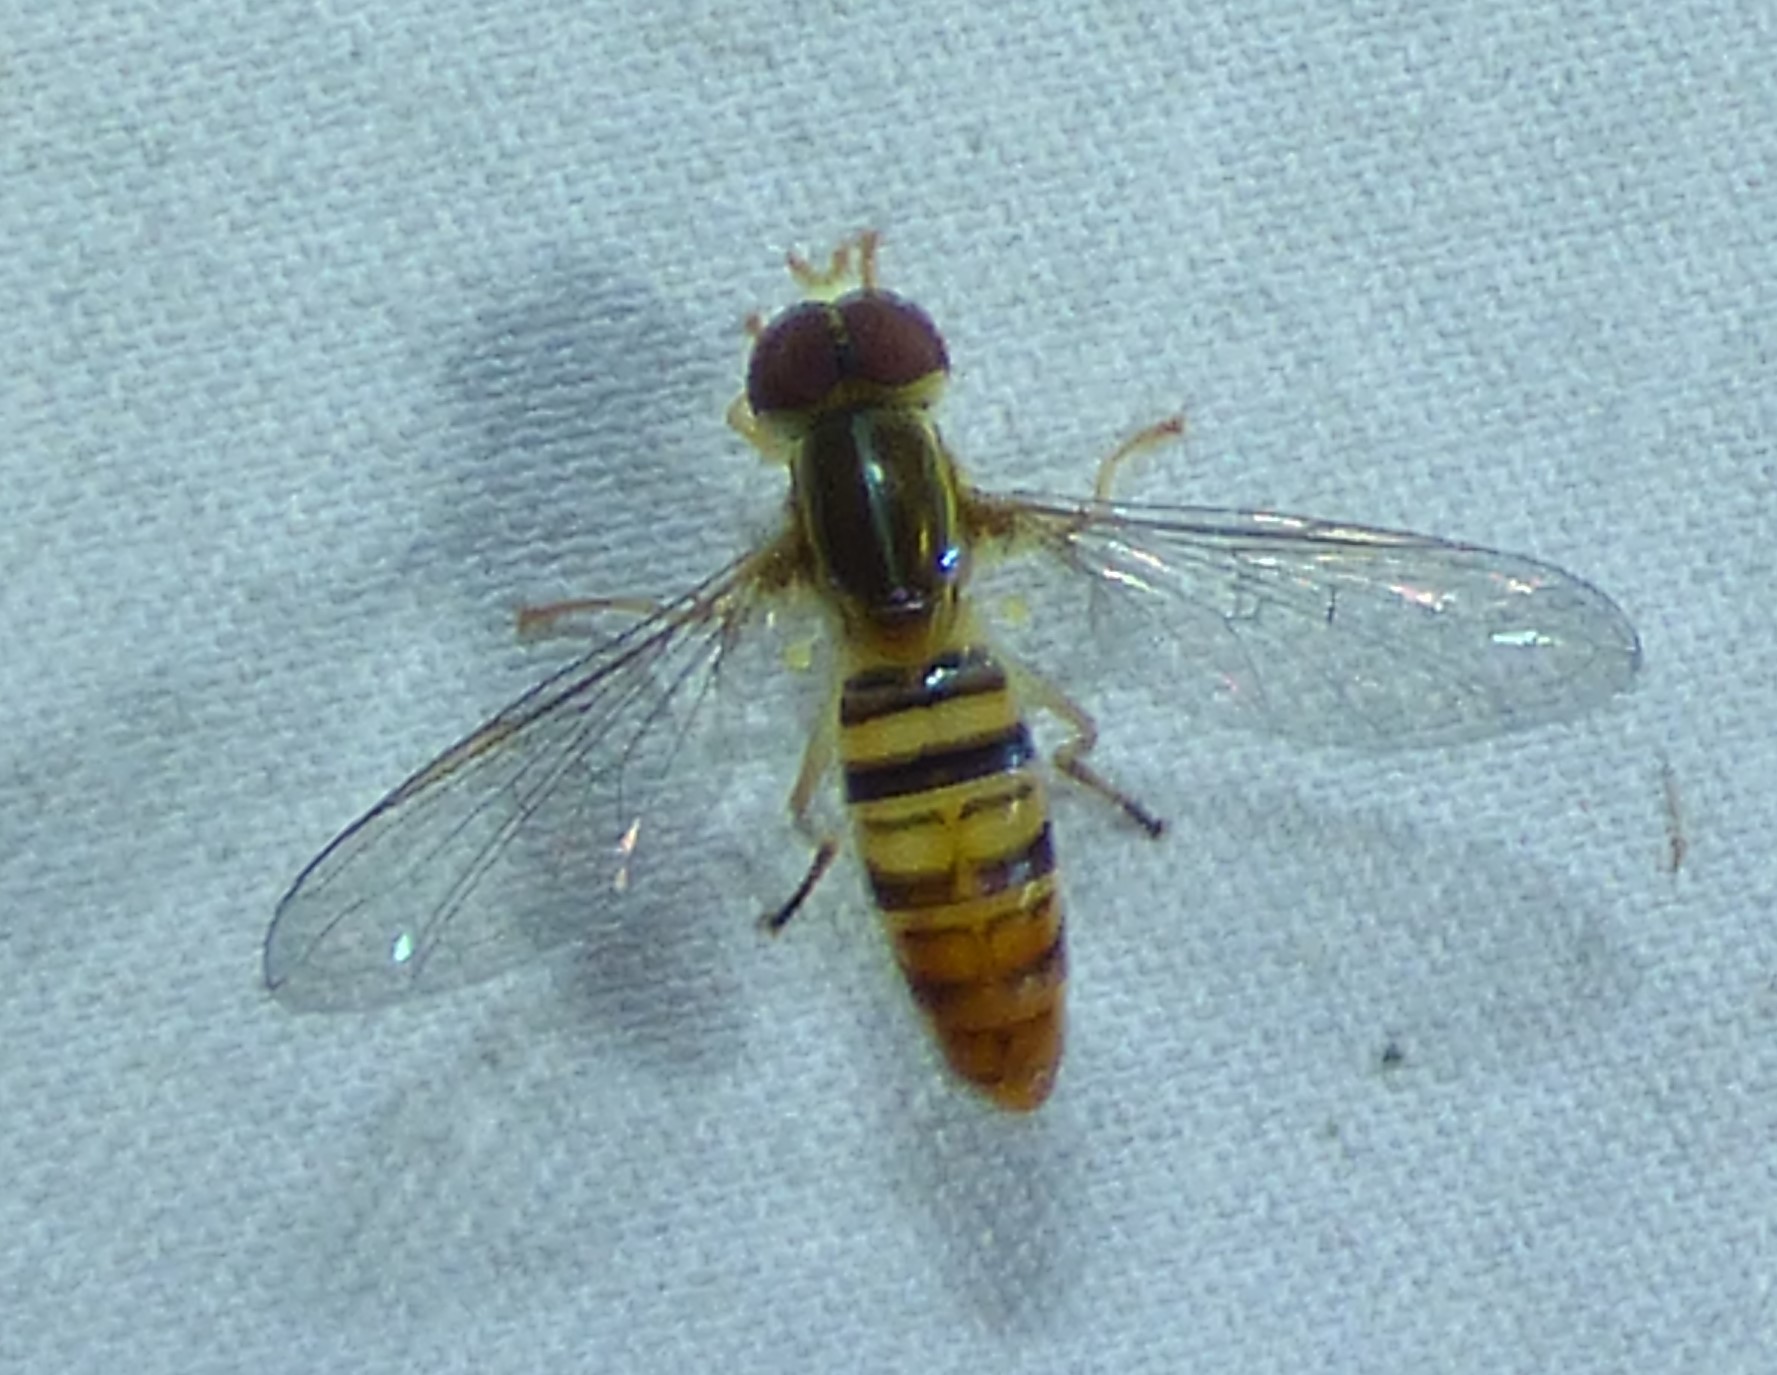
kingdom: Animalia
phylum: Arthropoda
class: Insecta
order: Diptera
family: Syrphidae
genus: Toxomerus
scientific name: Toxomerus politus
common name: Maize calligrapher
